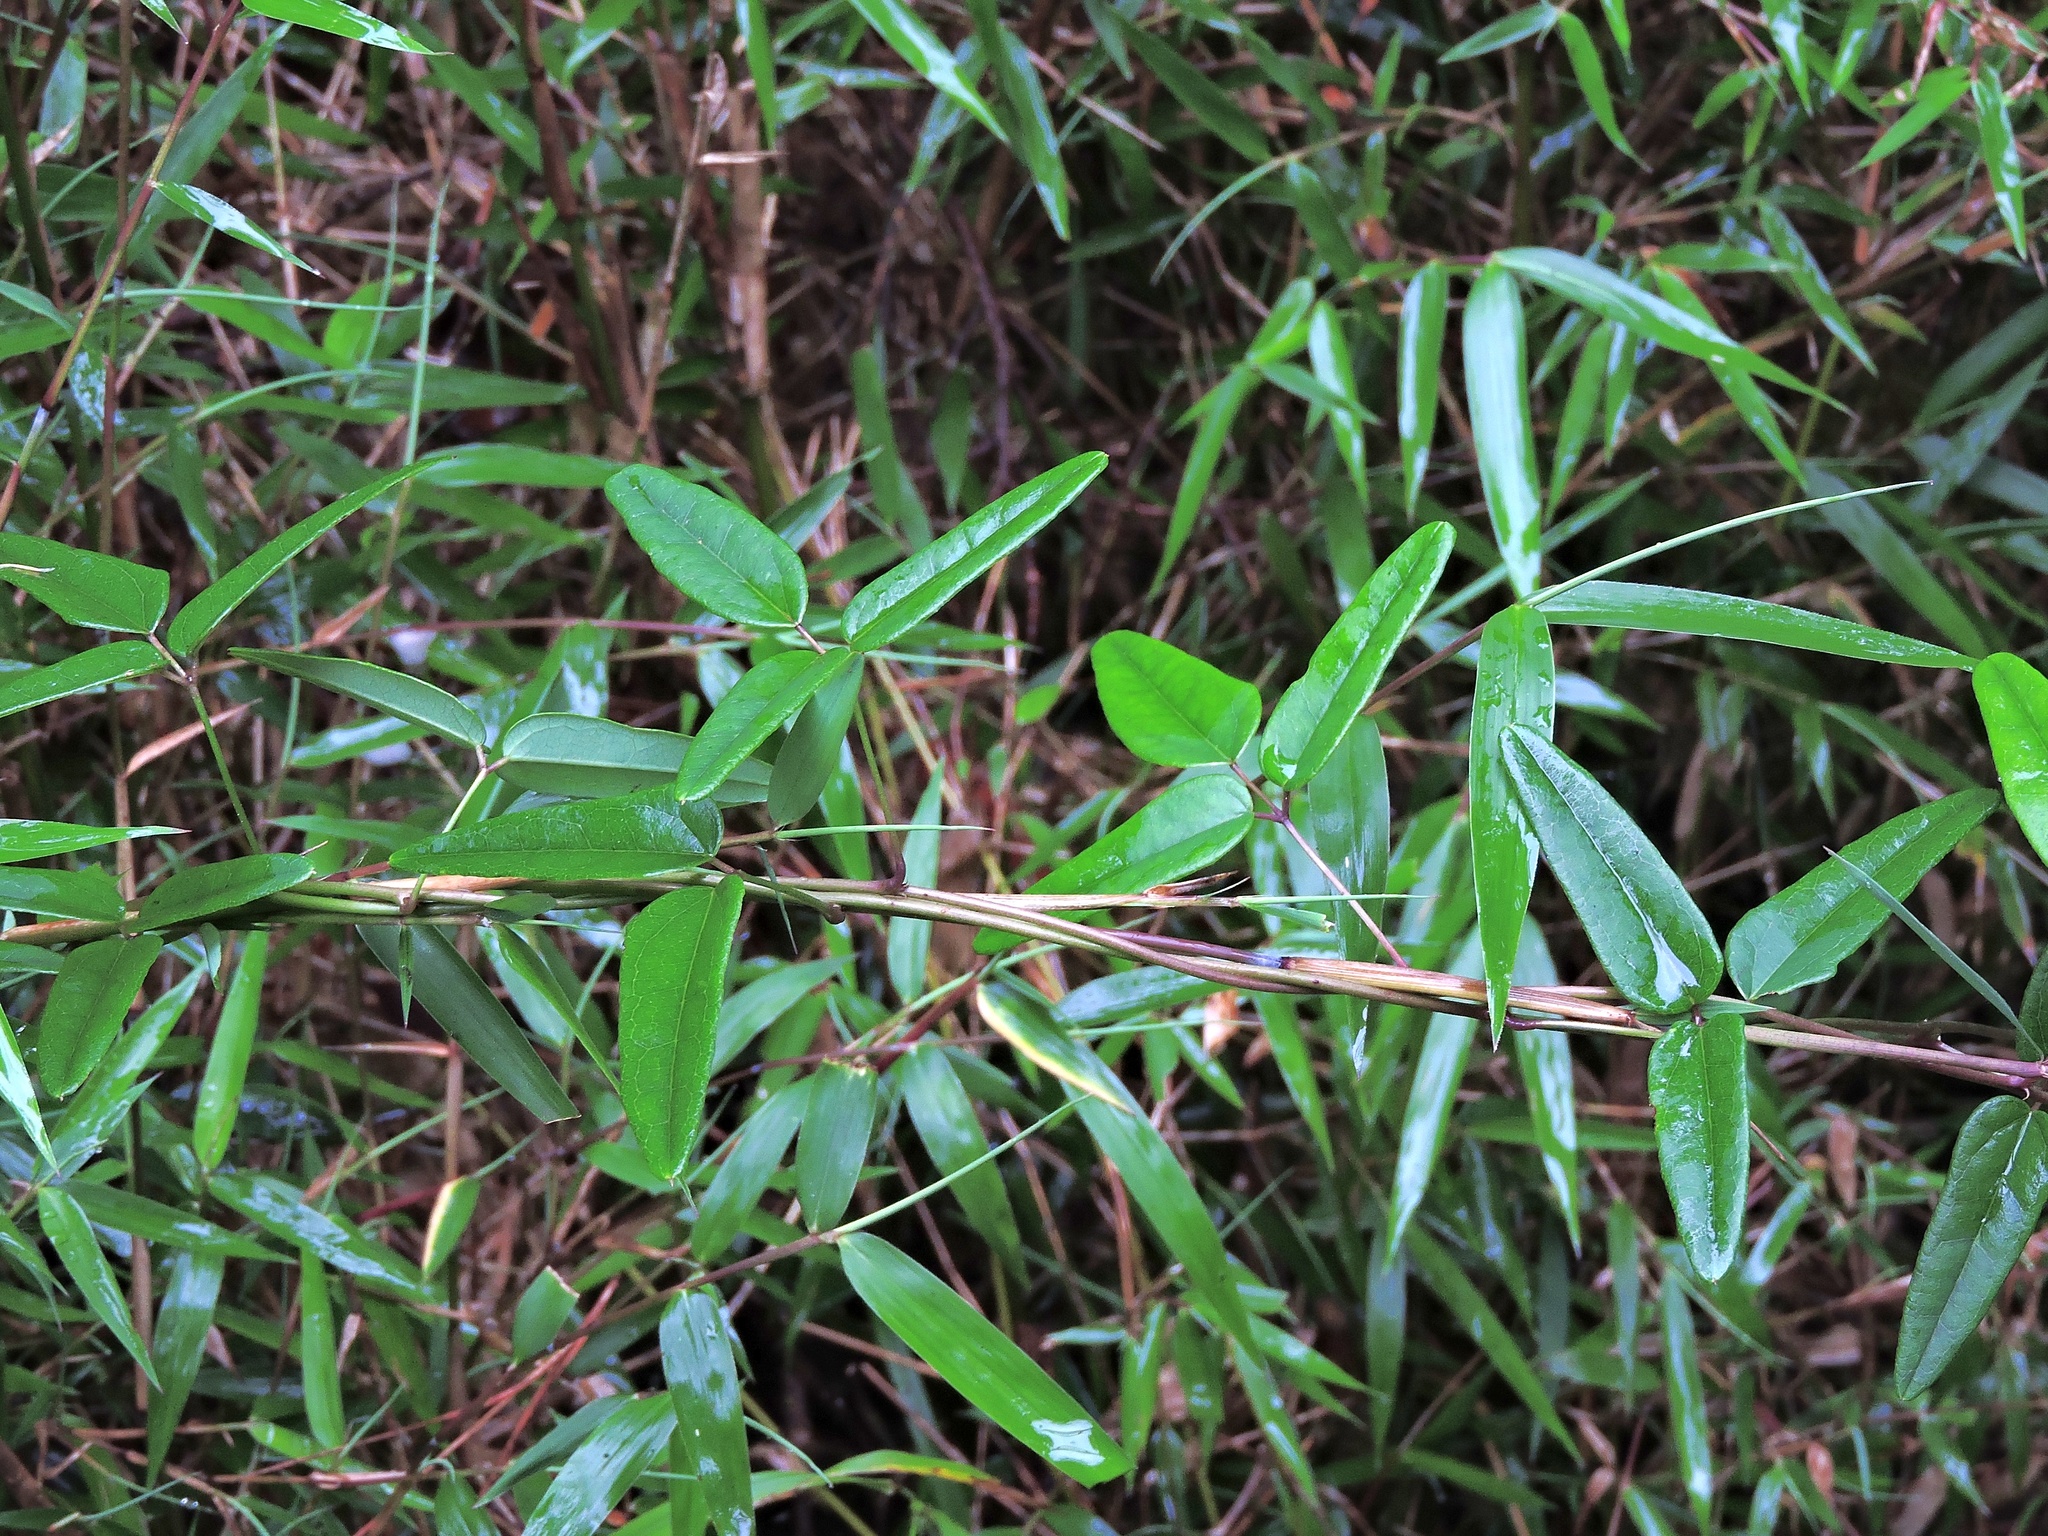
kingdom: Plantae
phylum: Tracheophyta
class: Magnoliopsida
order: Ranunculales
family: Lardizabalaceae
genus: Akebia
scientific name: Akebia trifoliata
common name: Chocolate-vine
